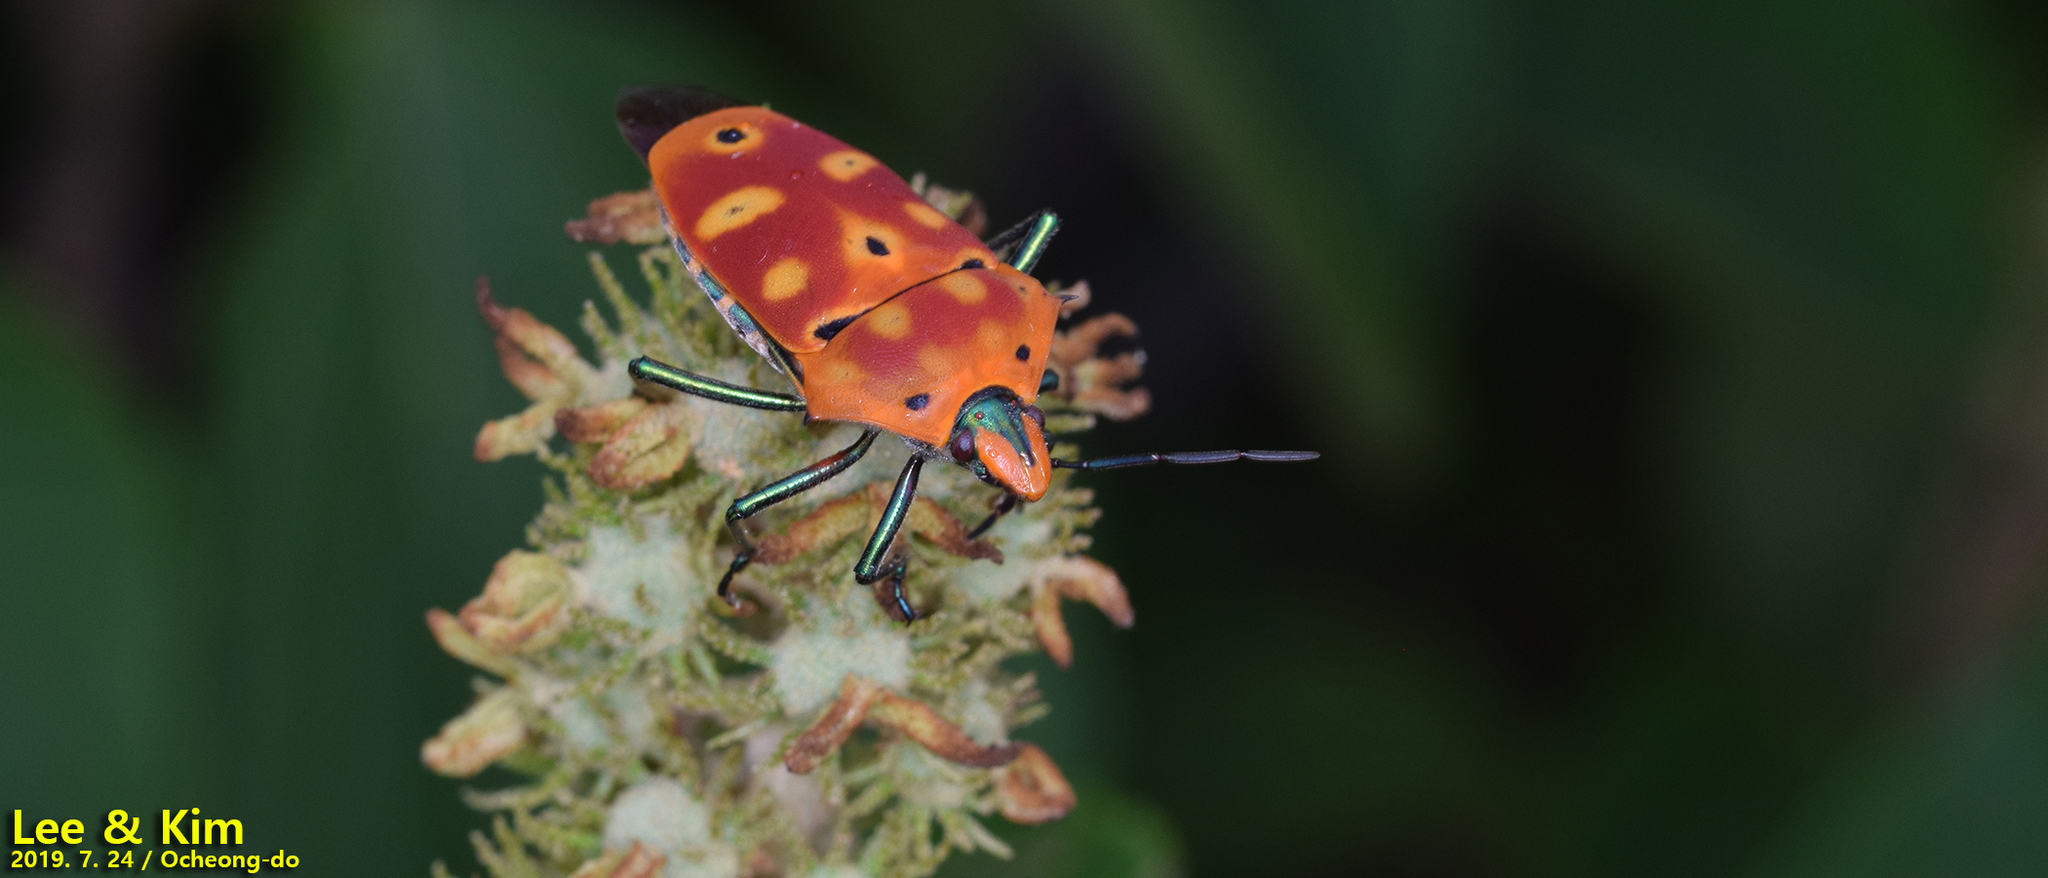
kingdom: Animalia
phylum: Arthropoda
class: Insecta
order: Hemiptera
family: Scutelleridae
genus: Cantao
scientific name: Cantao ocellatus
